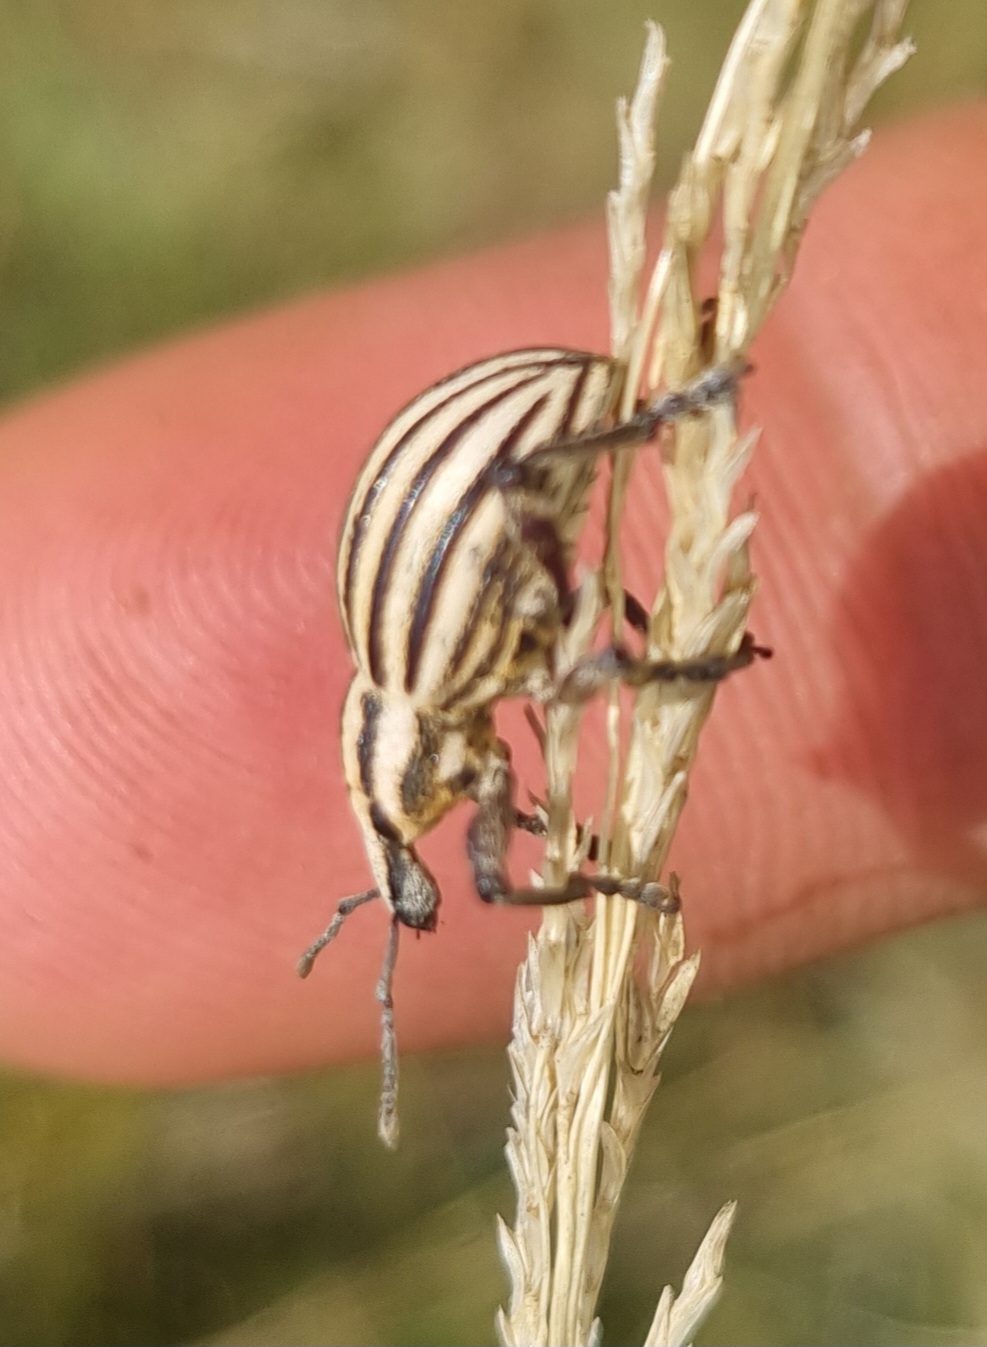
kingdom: Animalia
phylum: Arthropoda
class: Insecta
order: Coleoptera
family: Curculionidae
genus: Eremnus
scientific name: Eremnus lineatus
